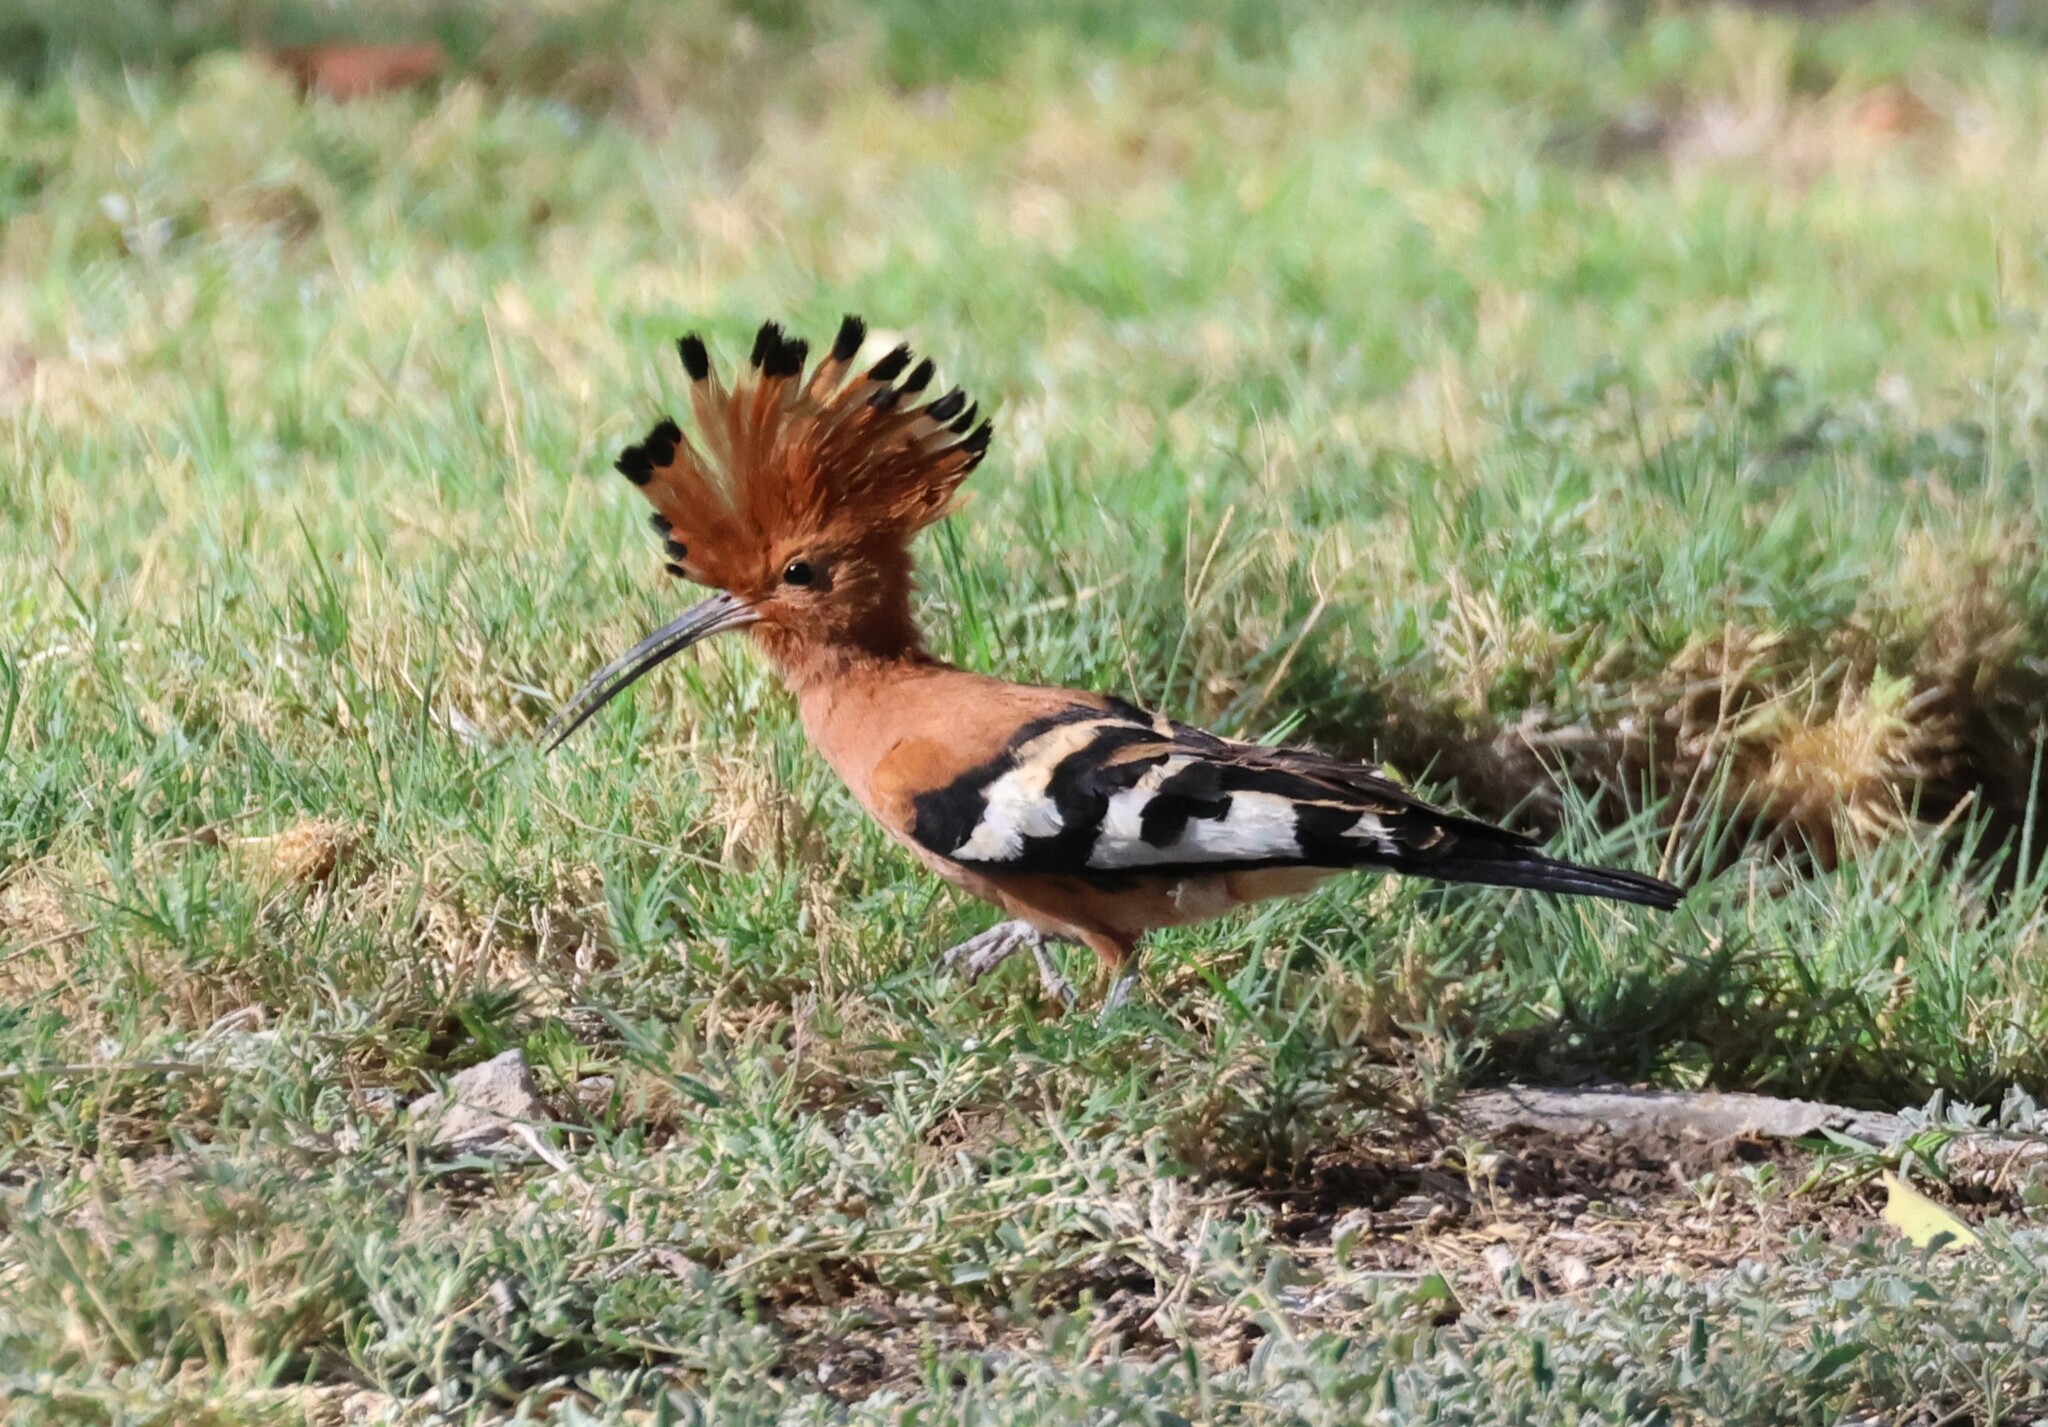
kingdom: Animalia
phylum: Chordata
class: Aves
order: Bucerotiformes
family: Upupidae
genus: Upupa
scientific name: Upupa africana
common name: African hoopoe
